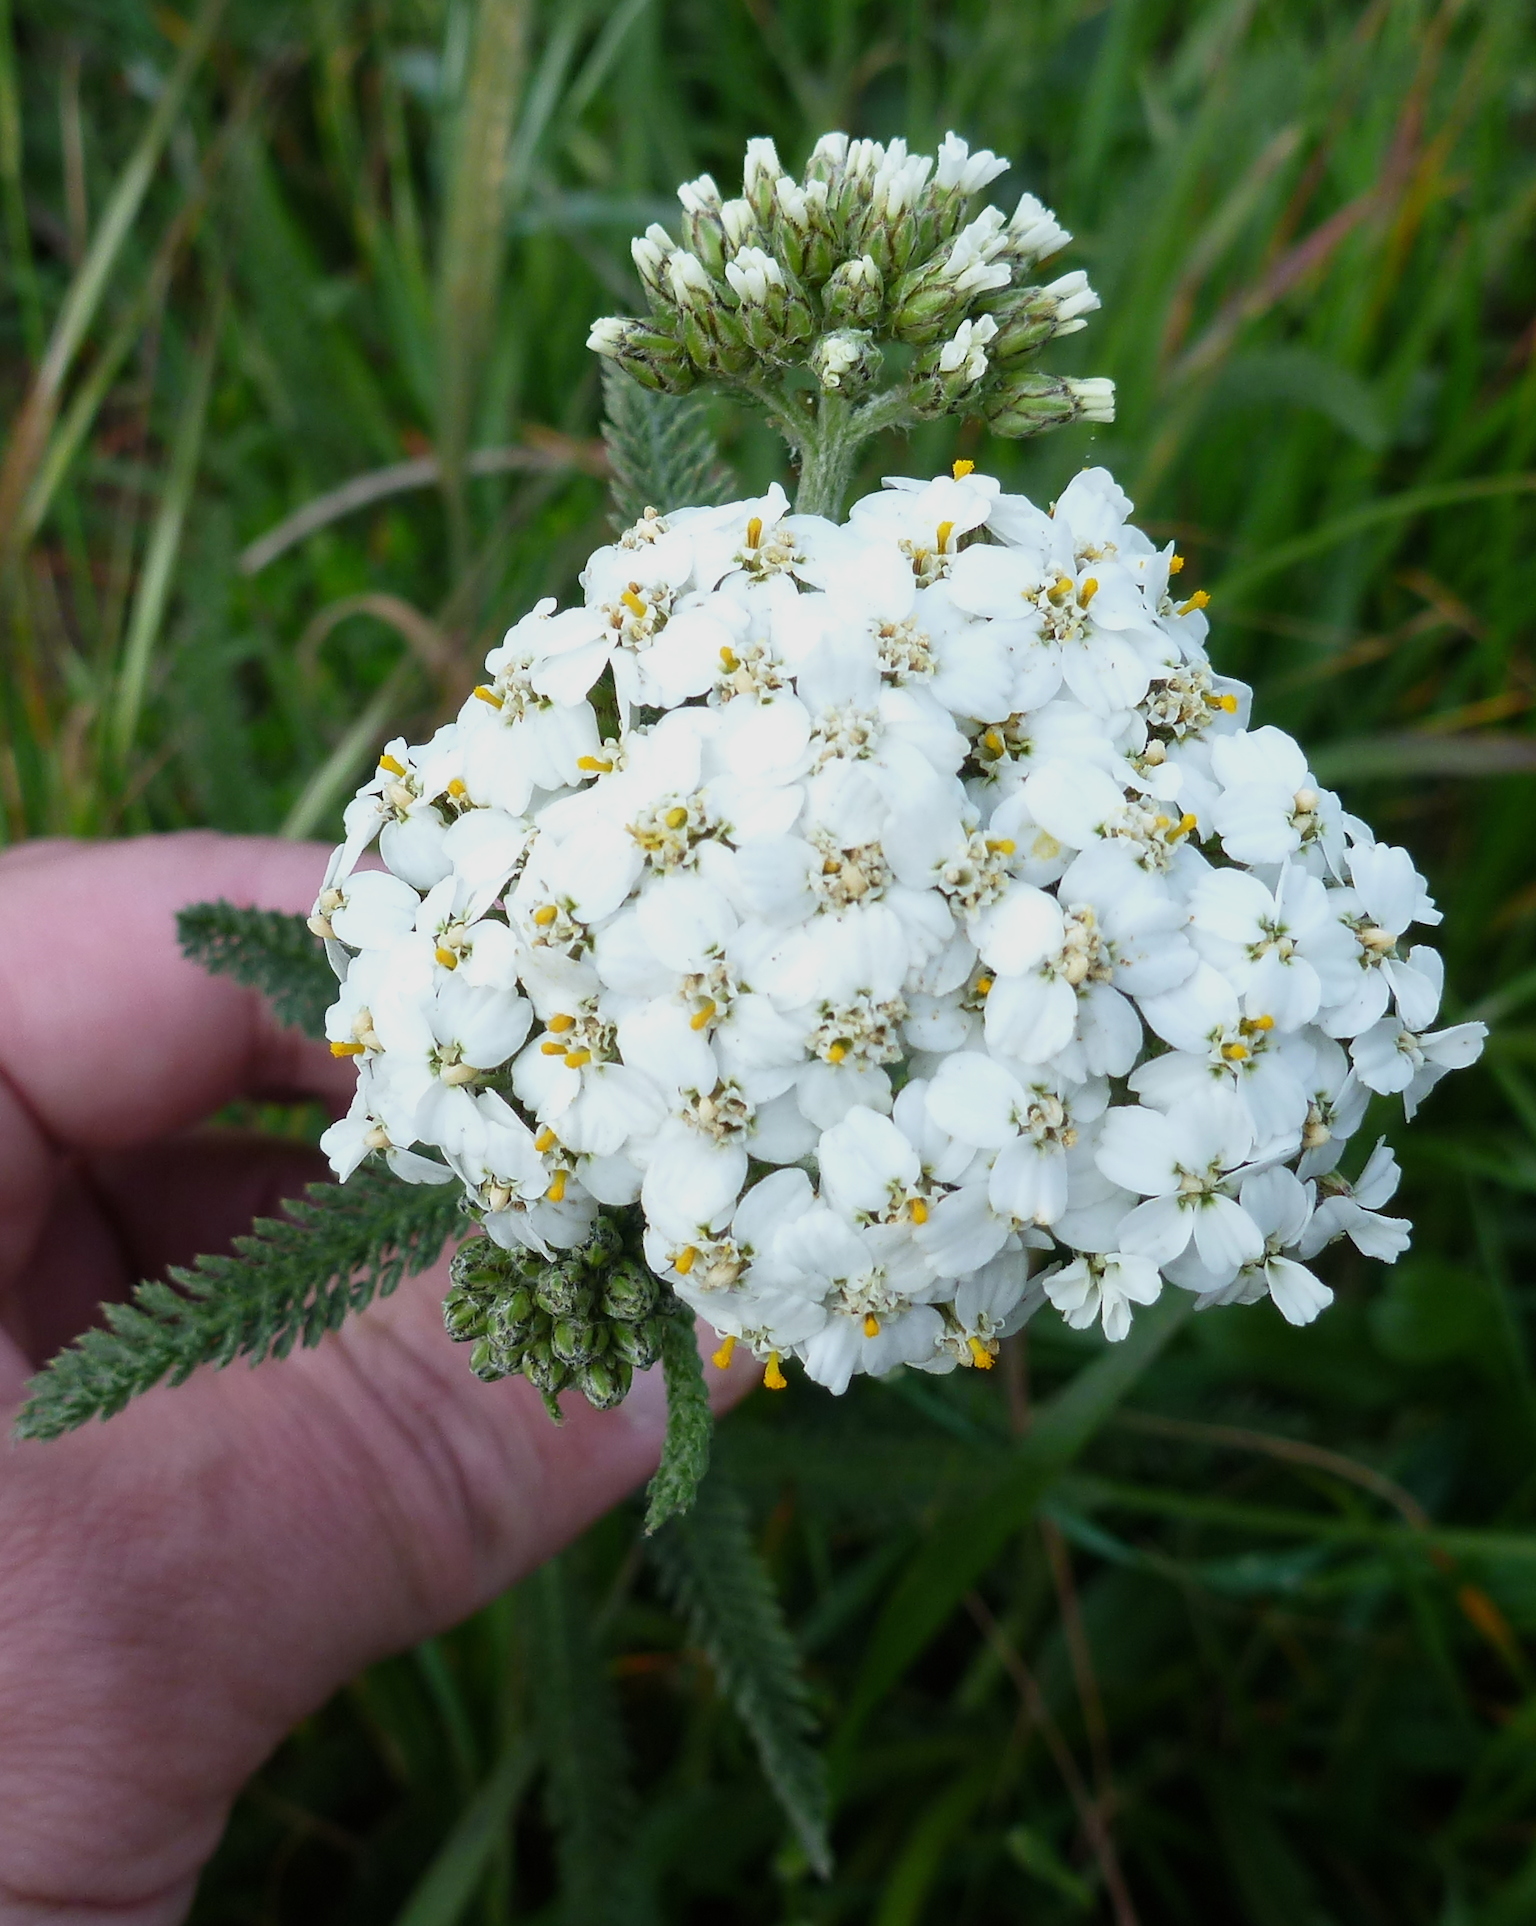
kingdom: Plantae
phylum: Tracheophyta
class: Magnoliopsida
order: Asterales
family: Asteraceae
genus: Achillea
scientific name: Achillea millefolium
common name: Yarrow
